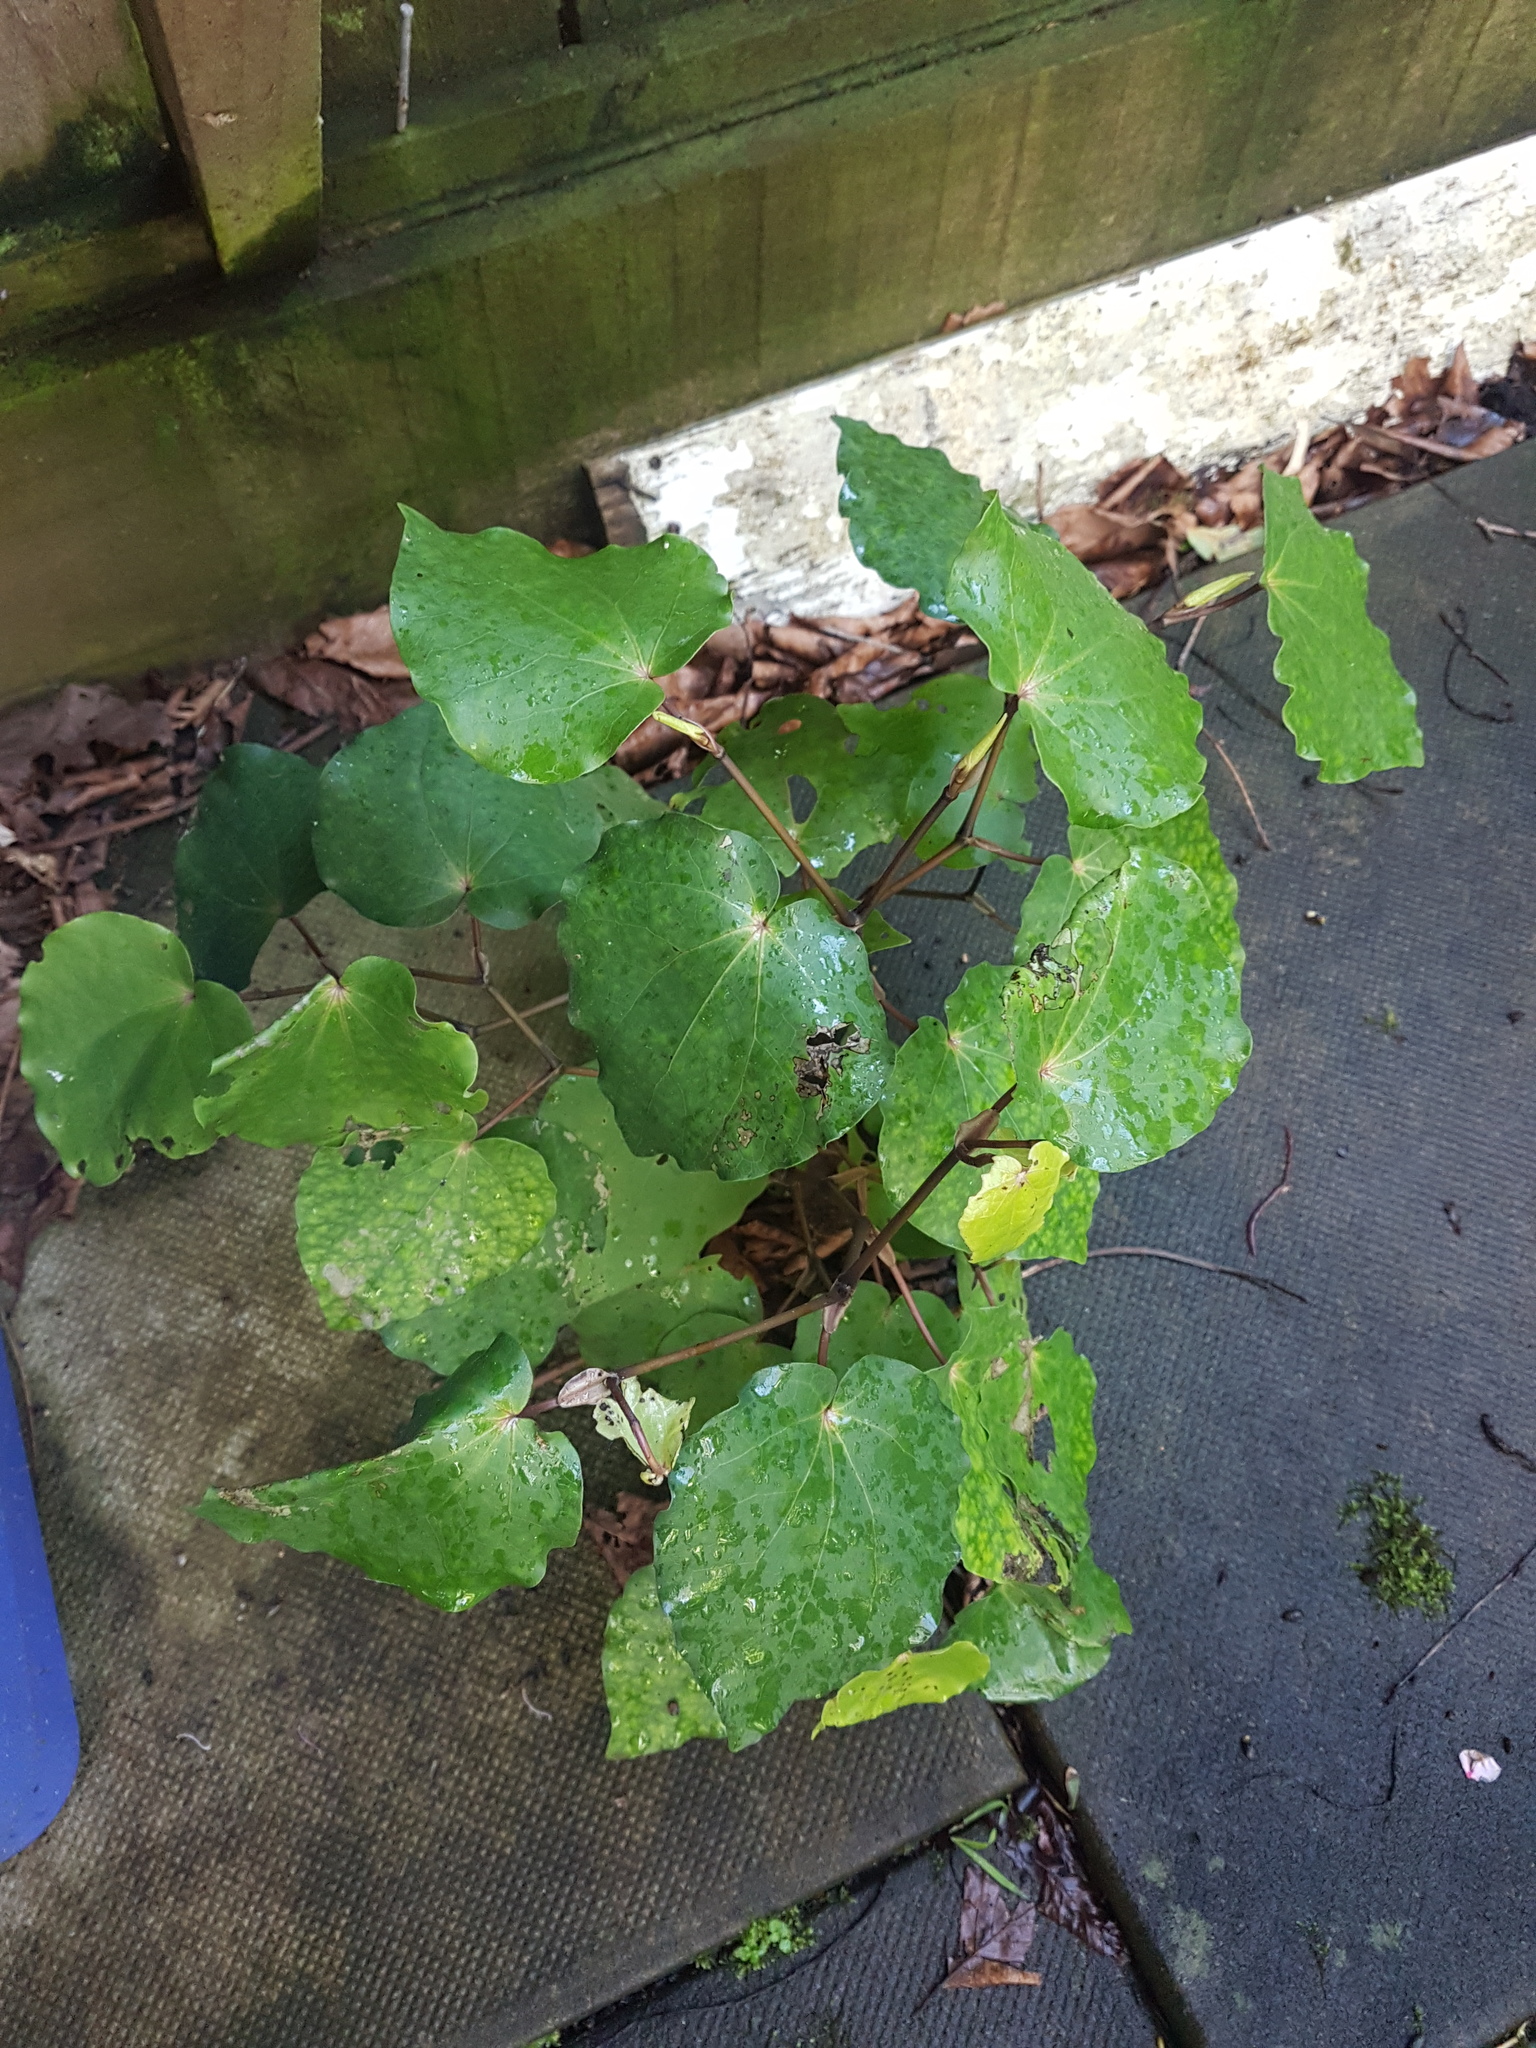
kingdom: Plantae
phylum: Tracheophyta
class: Magnoliopsida
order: Piperales
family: Piperaceae
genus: Macropiper
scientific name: Macropiper excelsum
